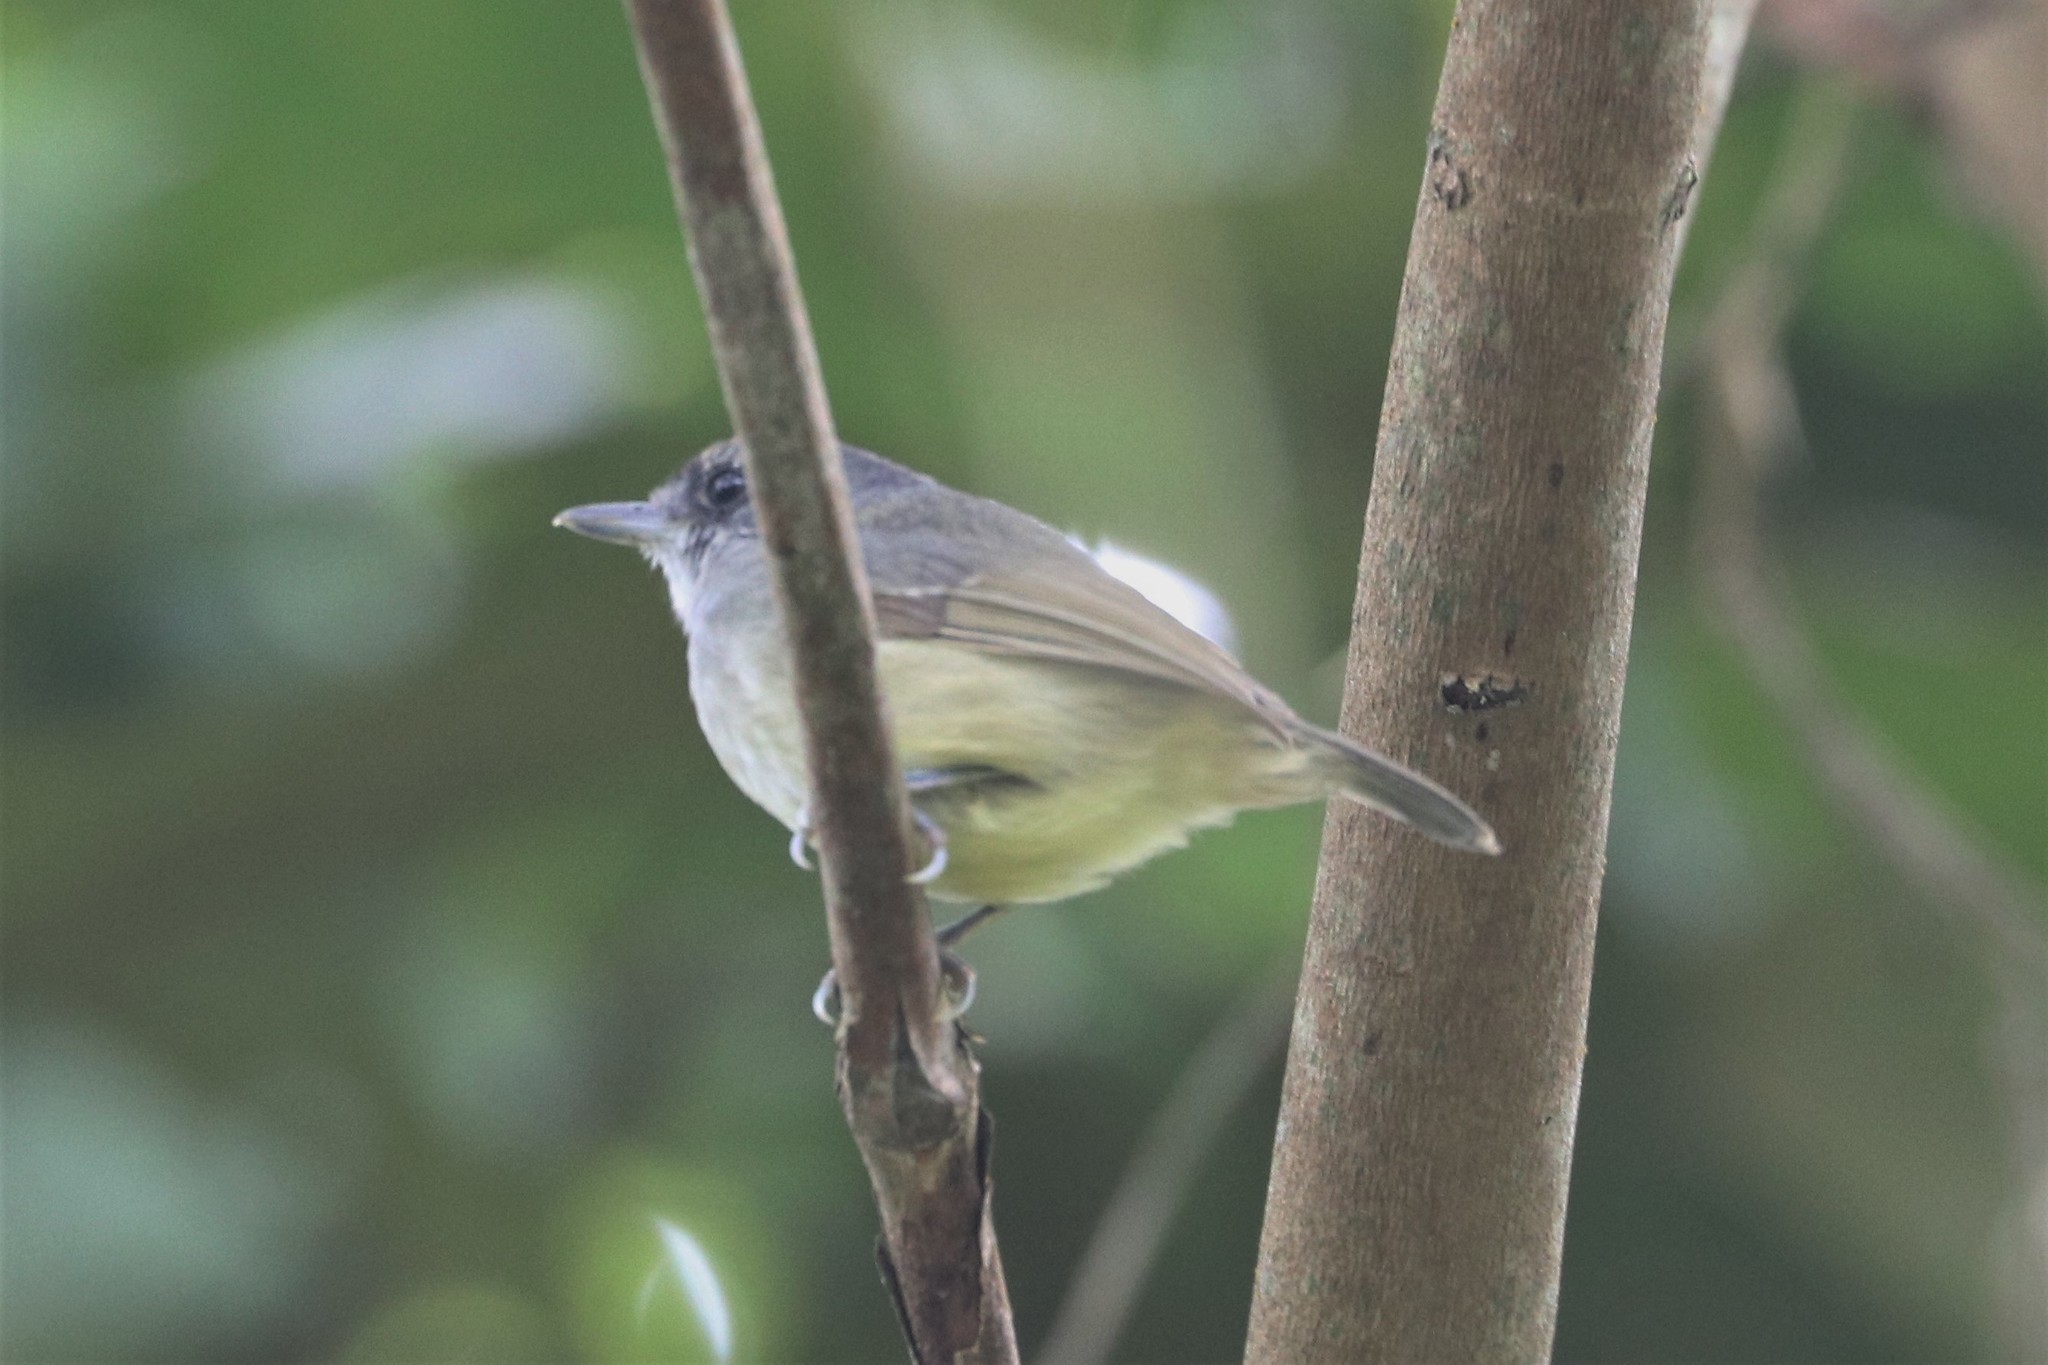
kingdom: Animalia
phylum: Chordata
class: Aves
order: Passeriformes
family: Thamnophilidae
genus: Dysithamnus
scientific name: Dysithamnus mentalis
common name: Plain antvireo
